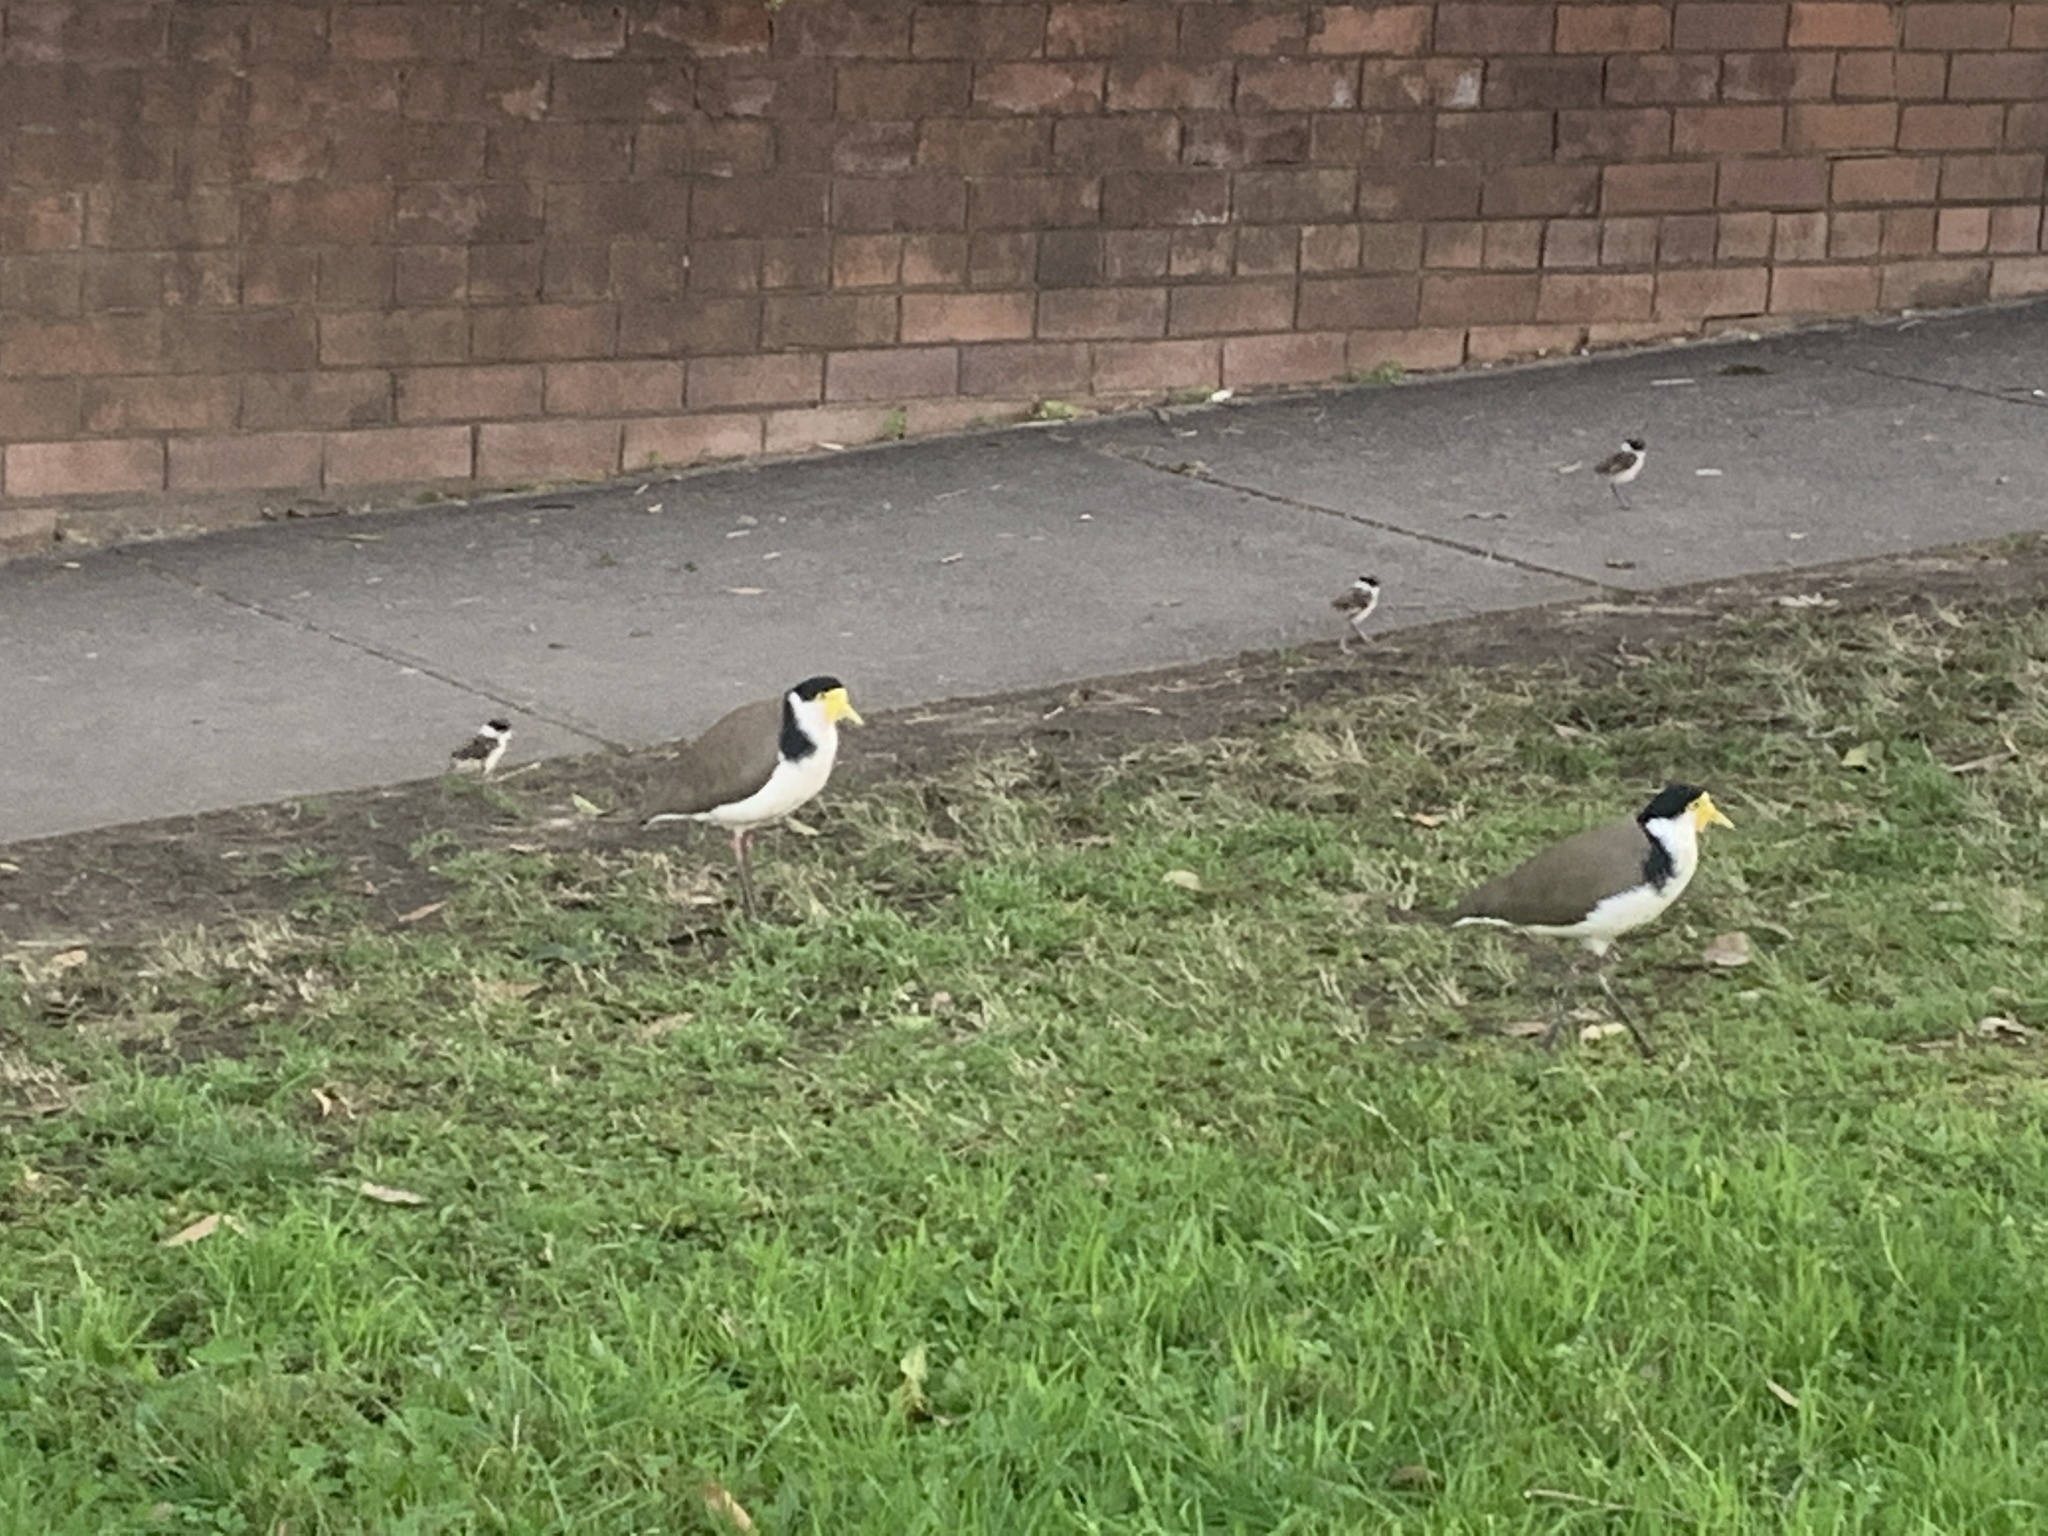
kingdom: Animalia
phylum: Chordata
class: Aves
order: Charadriiformes
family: Charadriidae
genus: Vanellus
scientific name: Vanellus miles
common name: Masked lapwing
